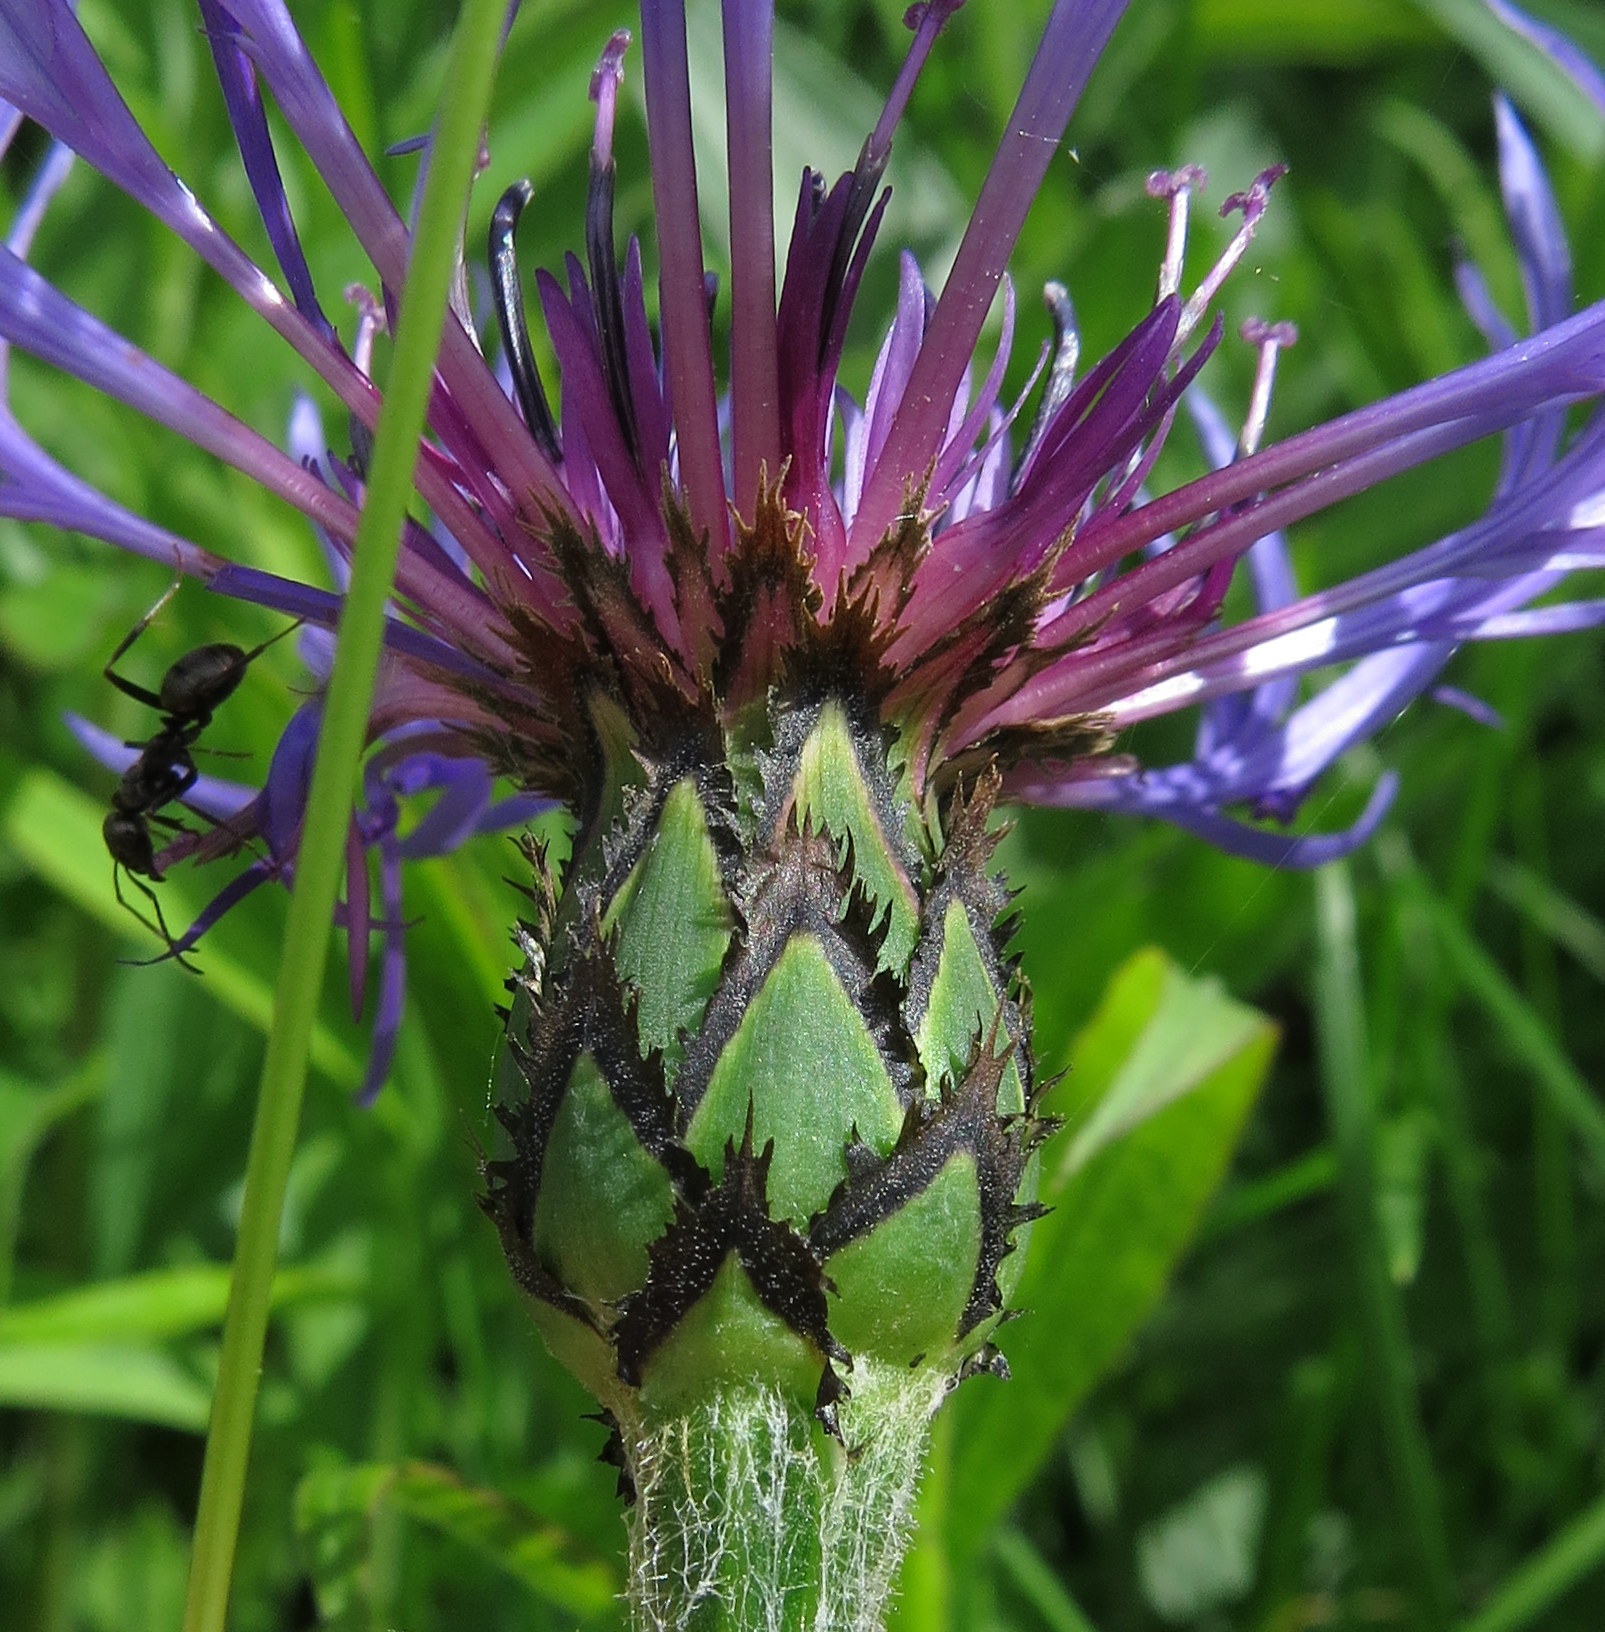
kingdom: Plantae
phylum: Tracheophyta
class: Magnoliopsida
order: Asterales
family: Asteraceae
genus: Centaurea
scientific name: Centaurea montana
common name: Perennial cornflower
